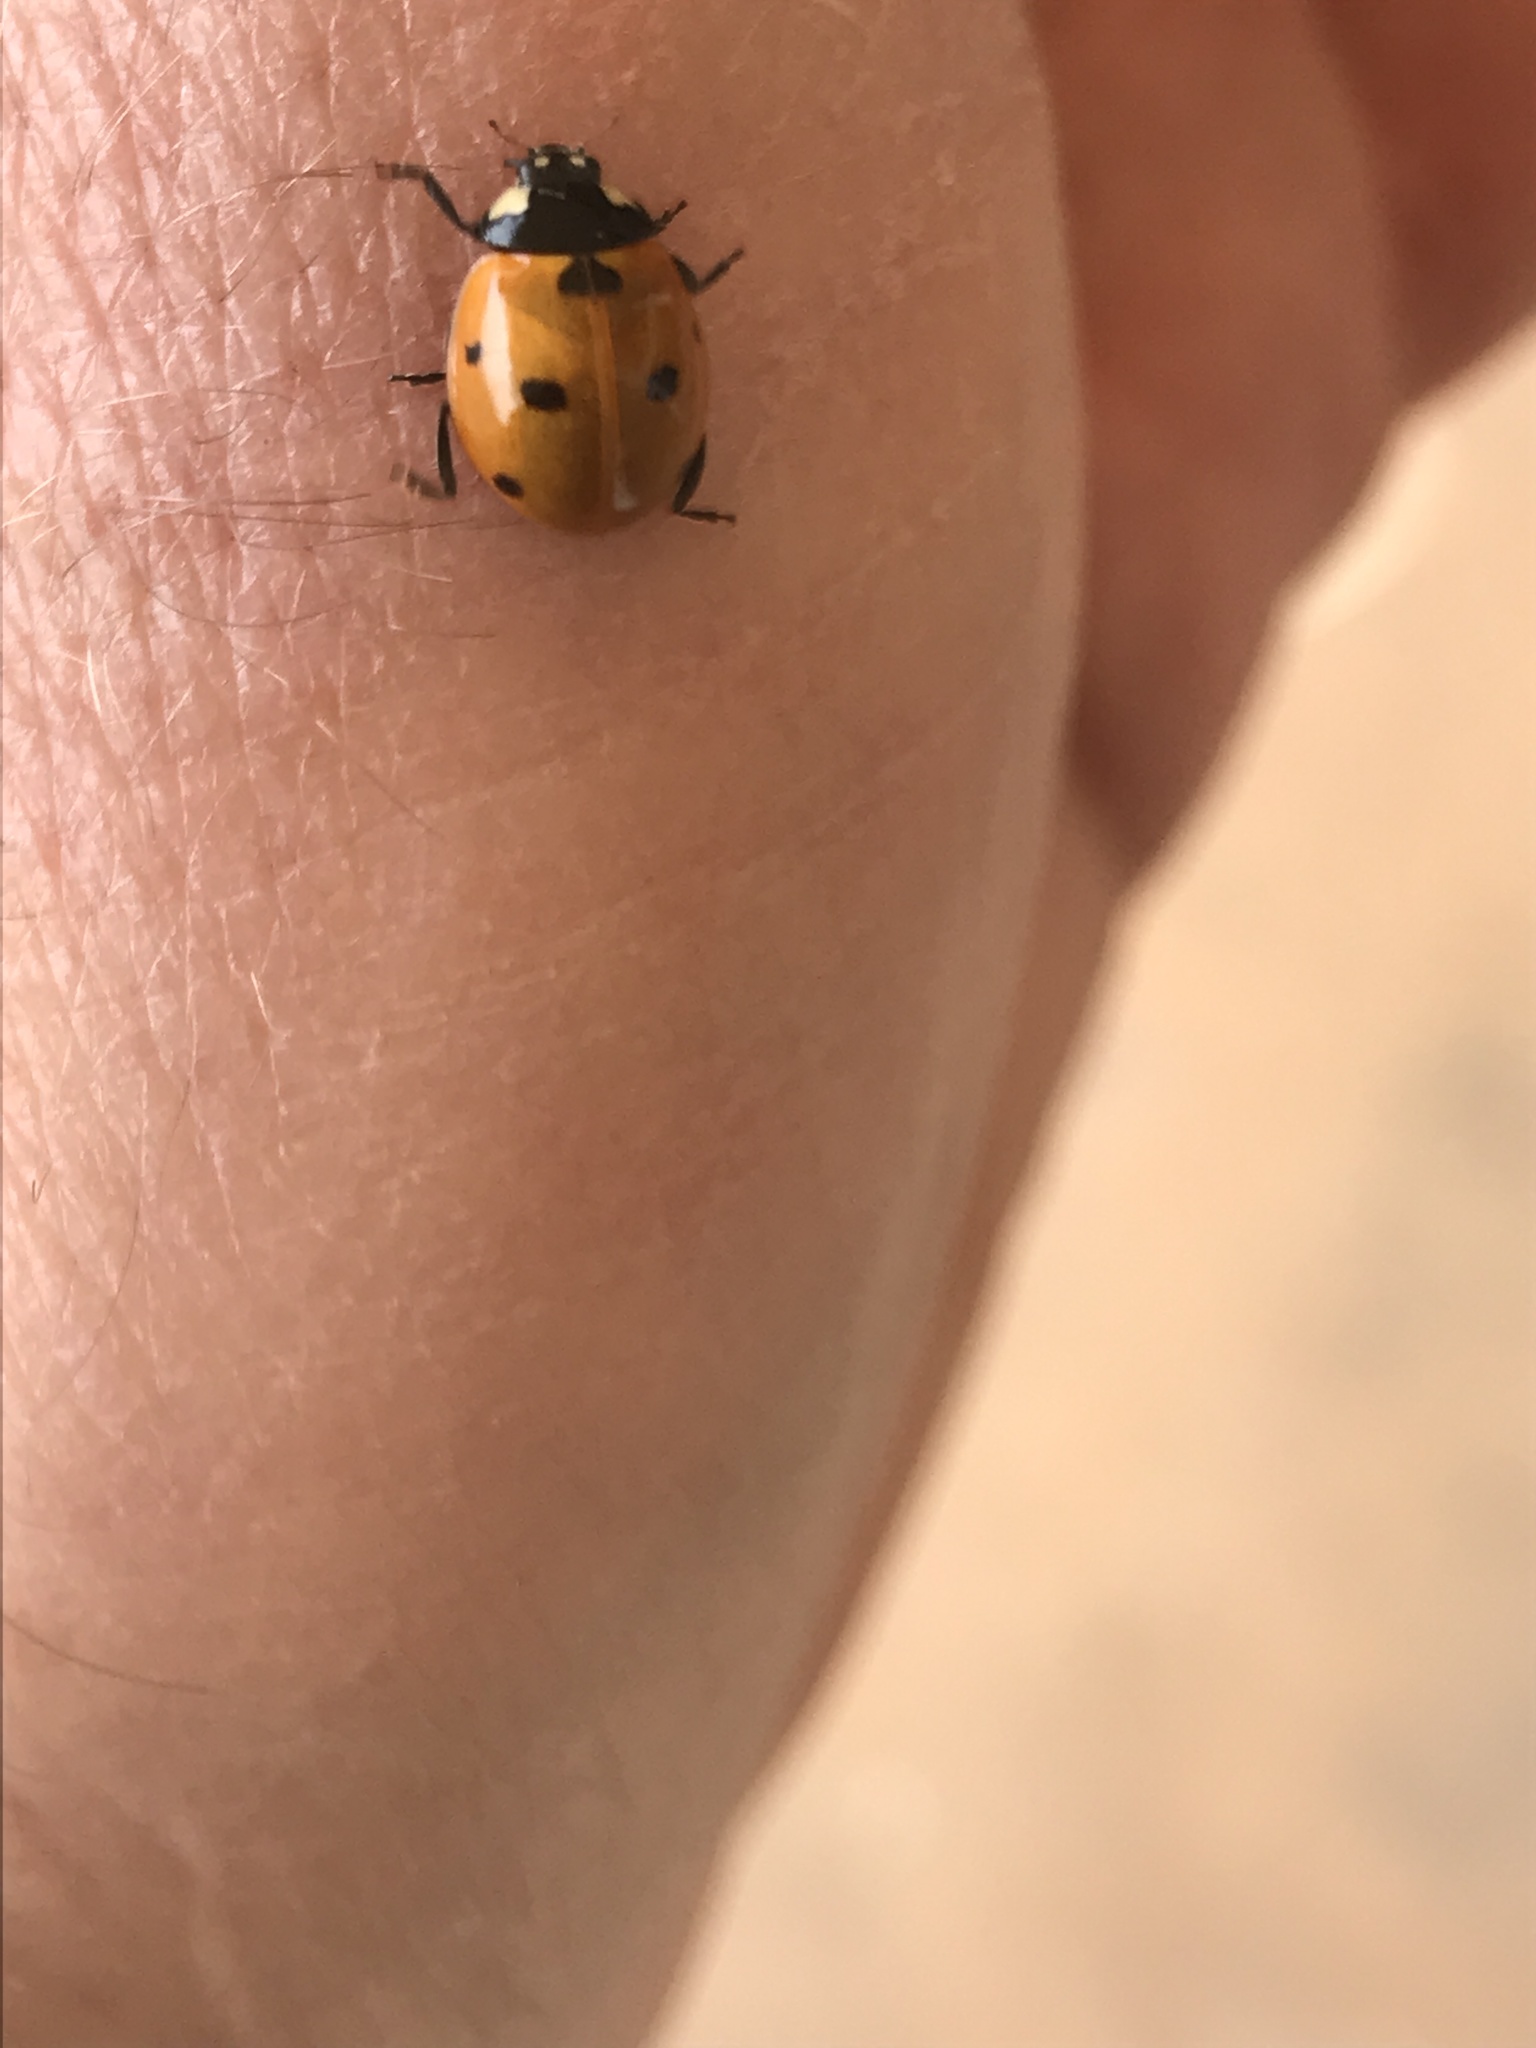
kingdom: Animalia
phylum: Arthropoda
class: Insecta
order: Coleoptera
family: Coccinellidae
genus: Coccinella
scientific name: Coccinella septempunctata
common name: Sevenspotted lady beetle
